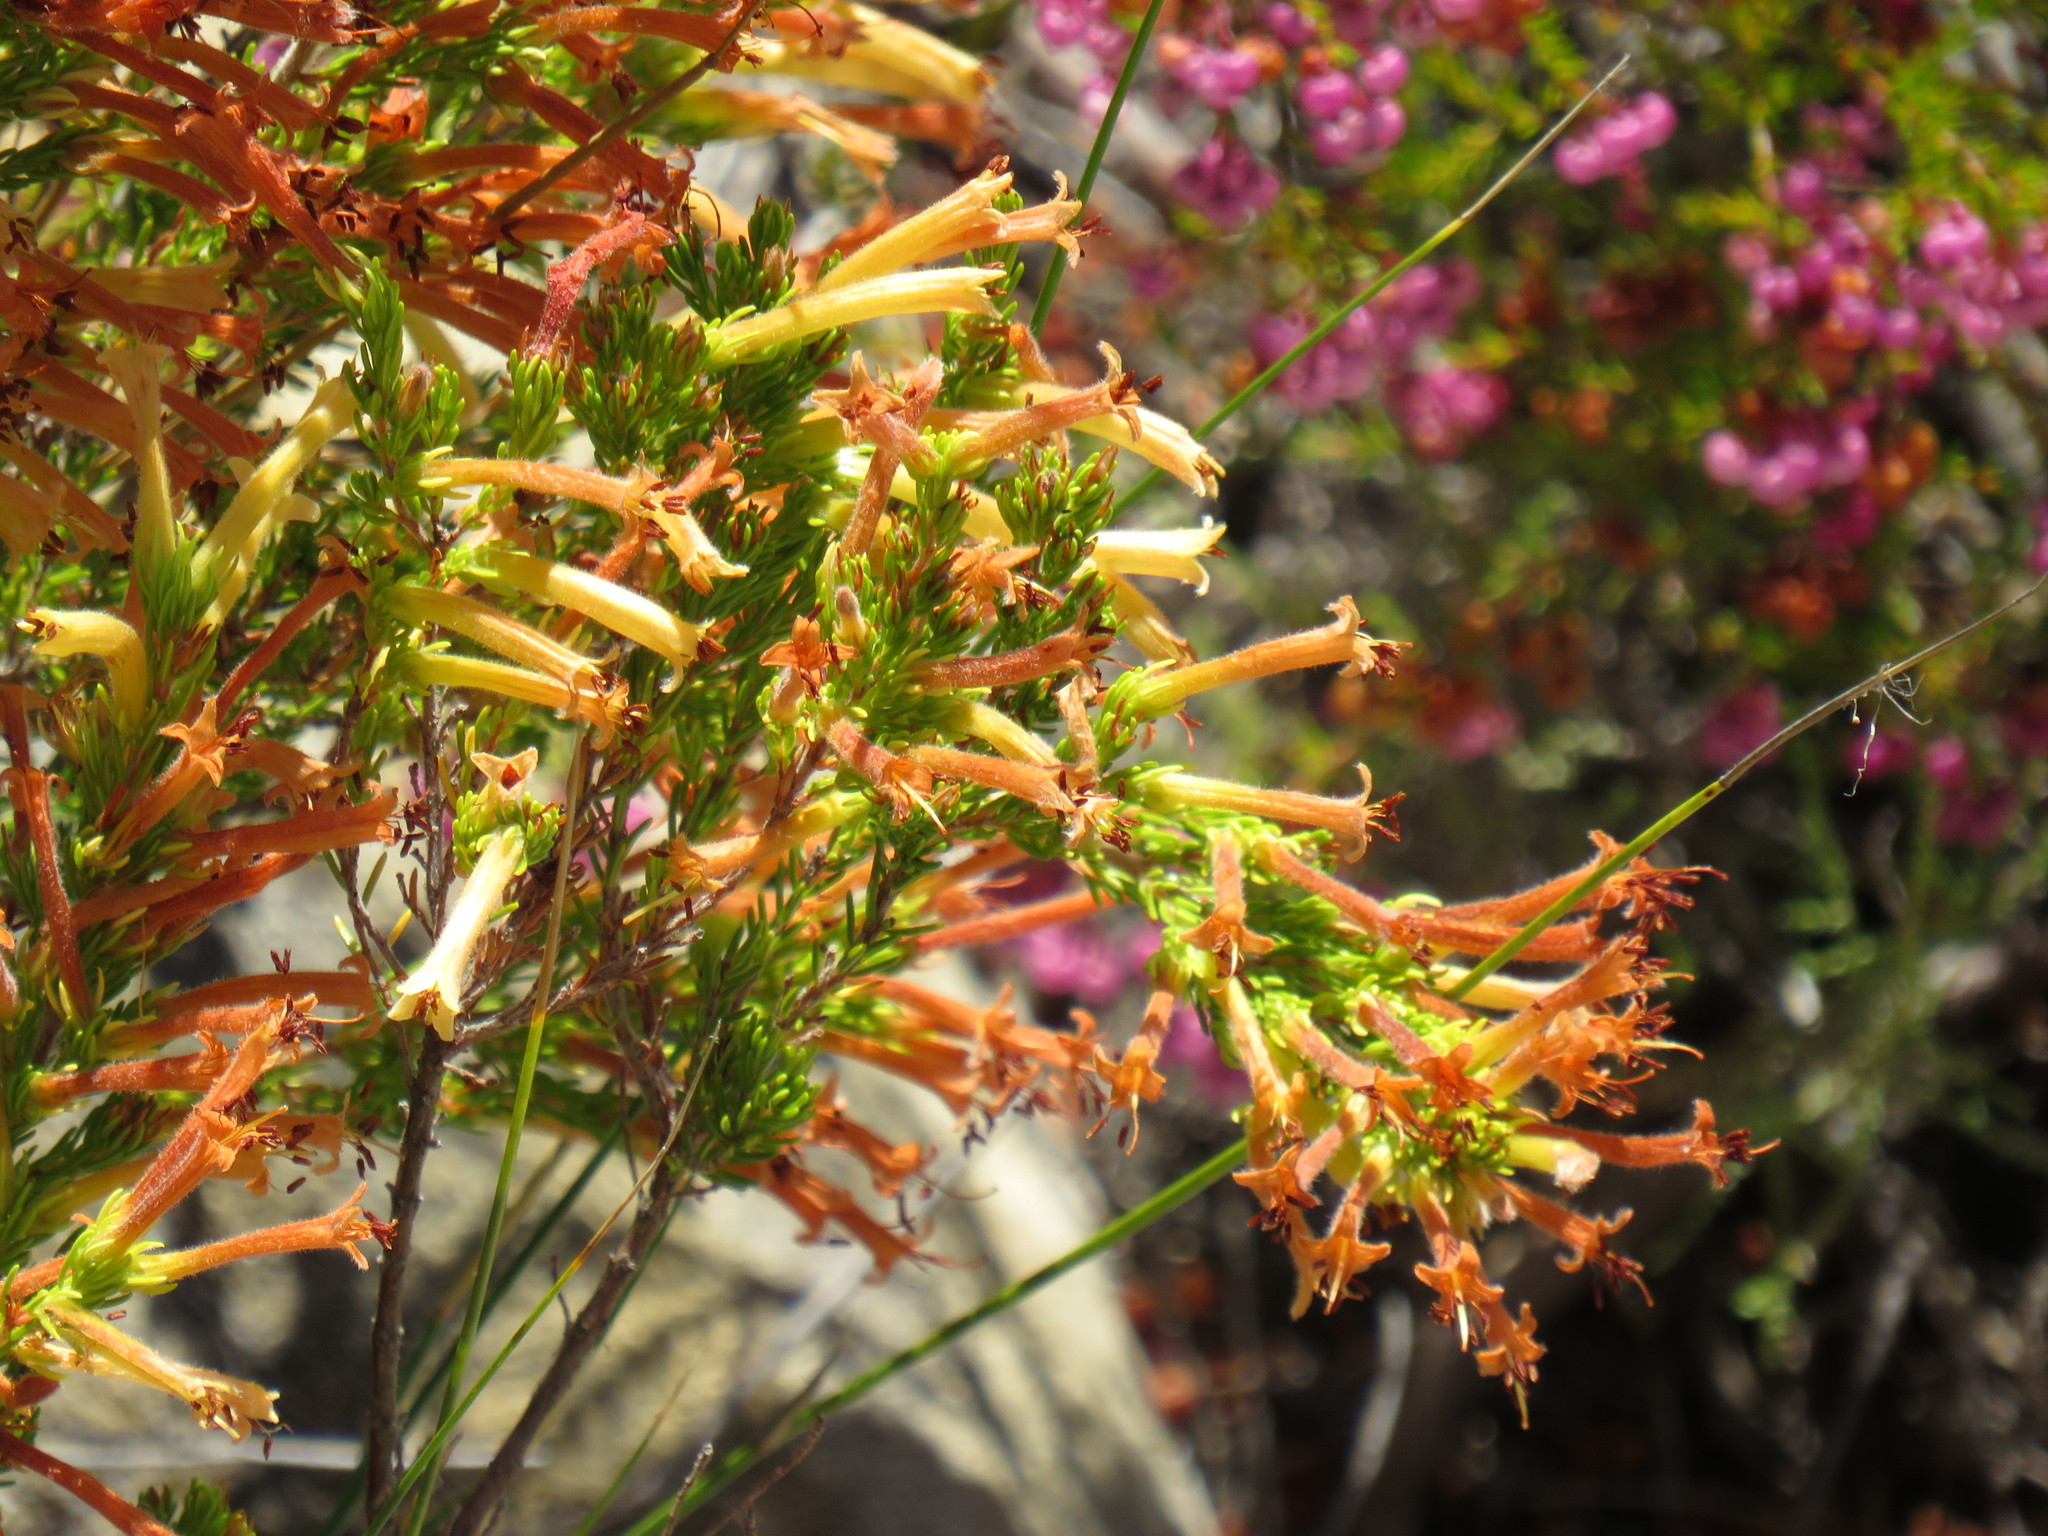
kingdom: Plantae
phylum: Tracheophyta
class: Magnoliopsida
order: Ericales
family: Ericaceae
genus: Erica
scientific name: Erica curviflora
